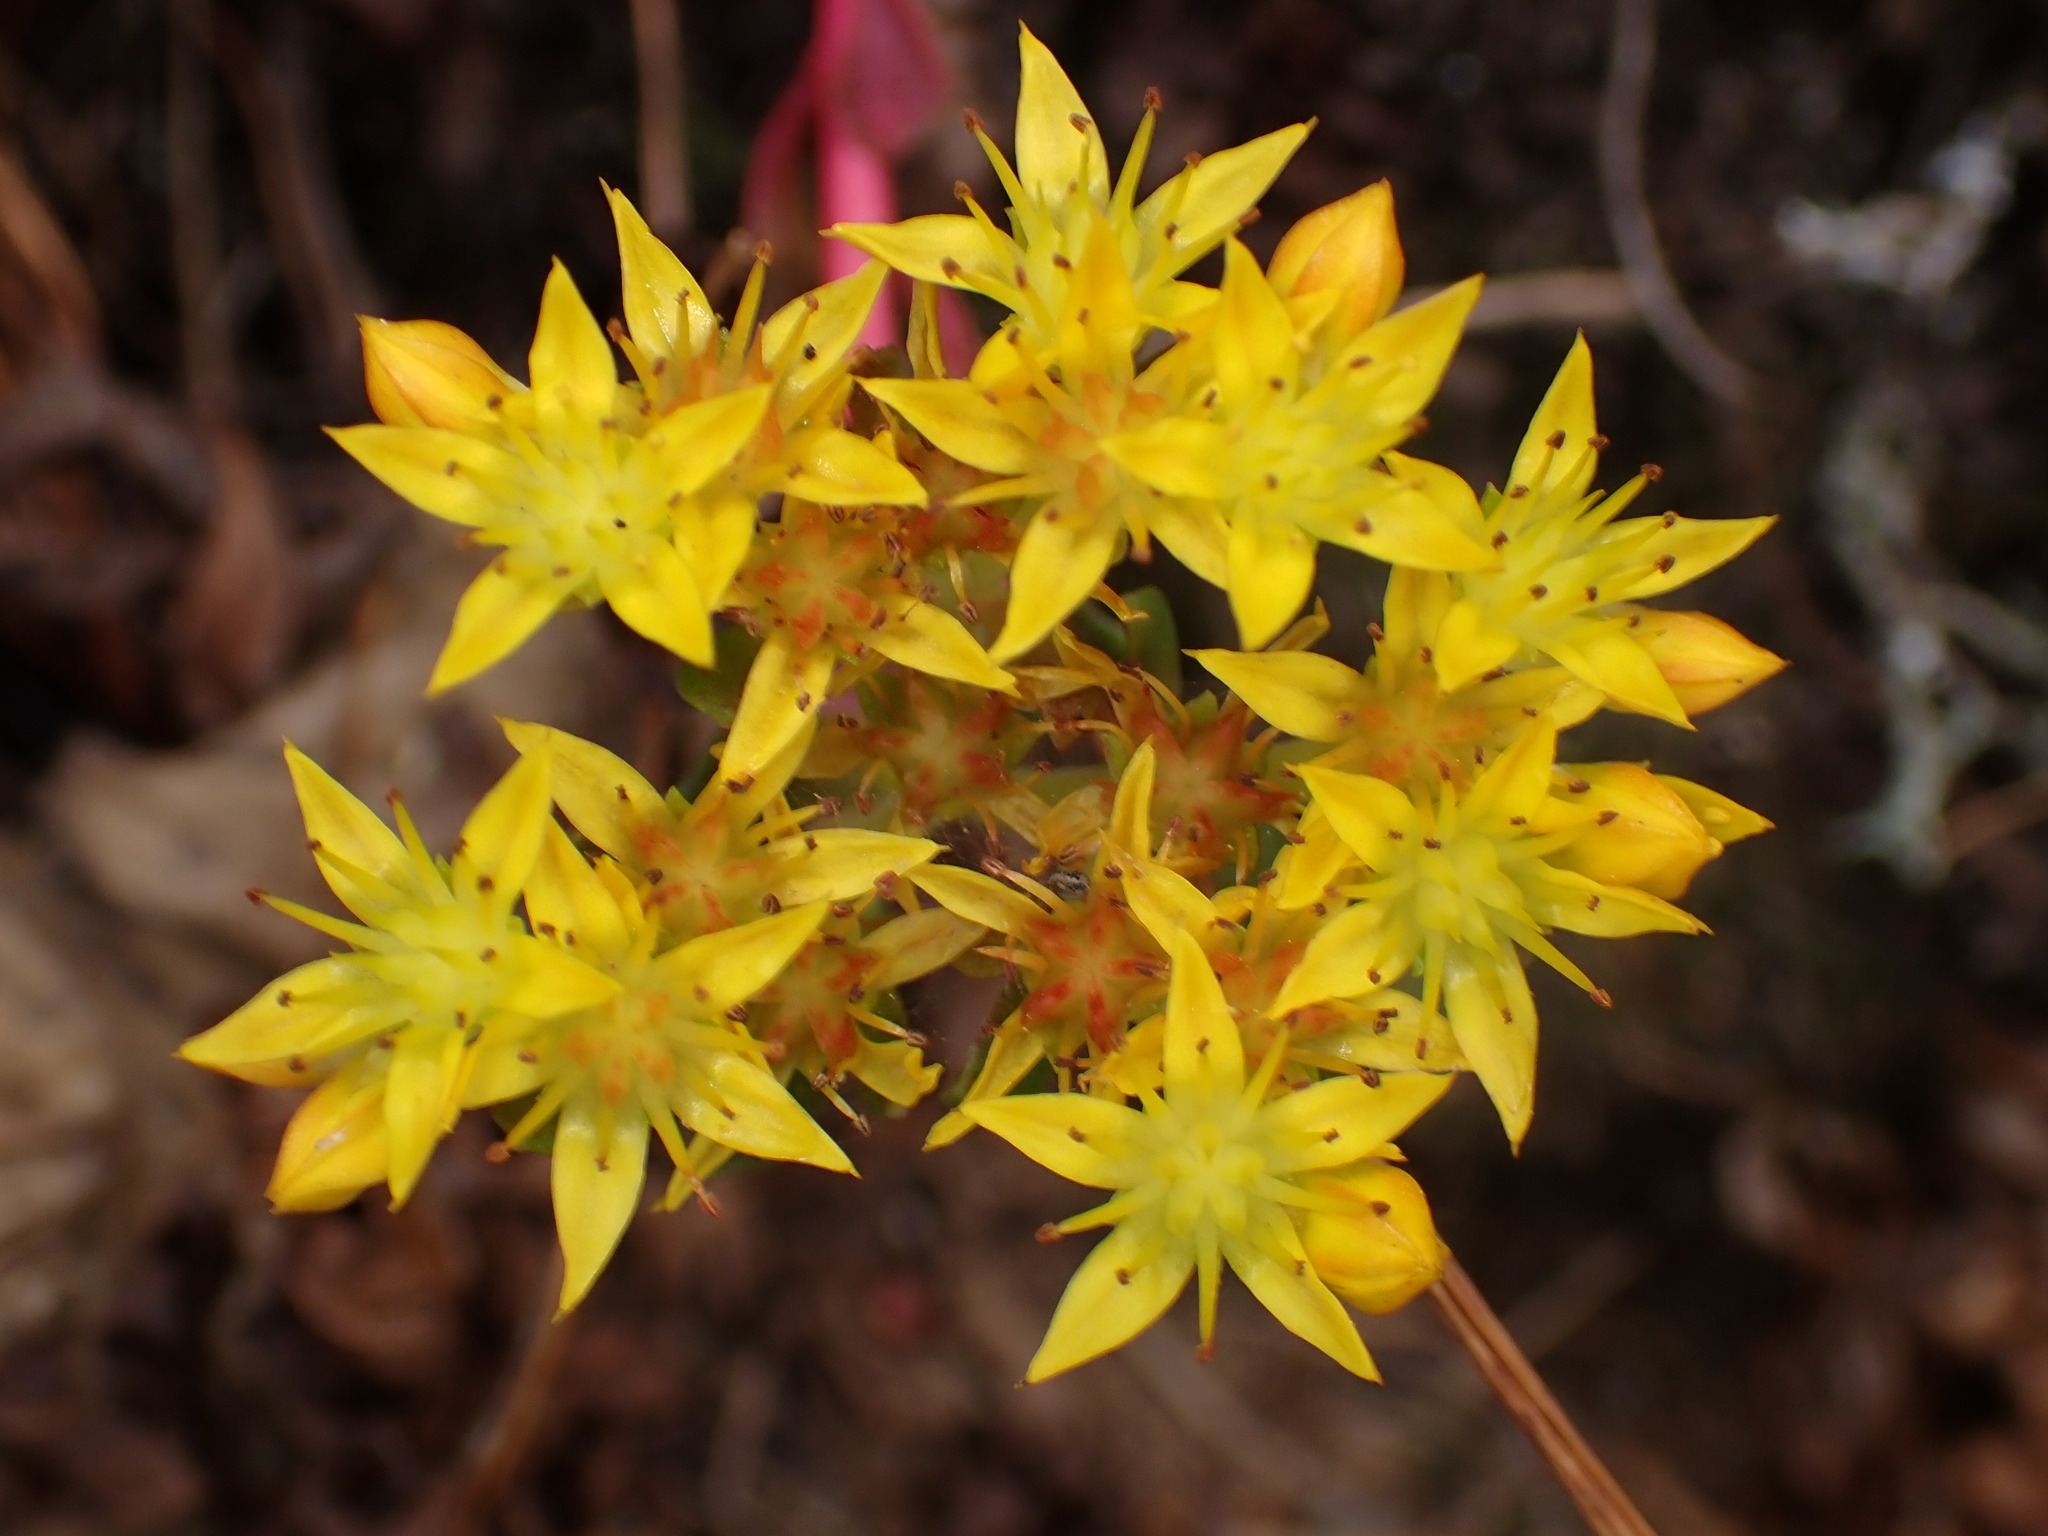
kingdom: Plantae
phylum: Tracheophyta
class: Magnoliopsida
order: Saxifragales
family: Crassulaceae
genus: Sedum
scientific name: Sedum spathulifolium
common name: Colorado stonecrop
